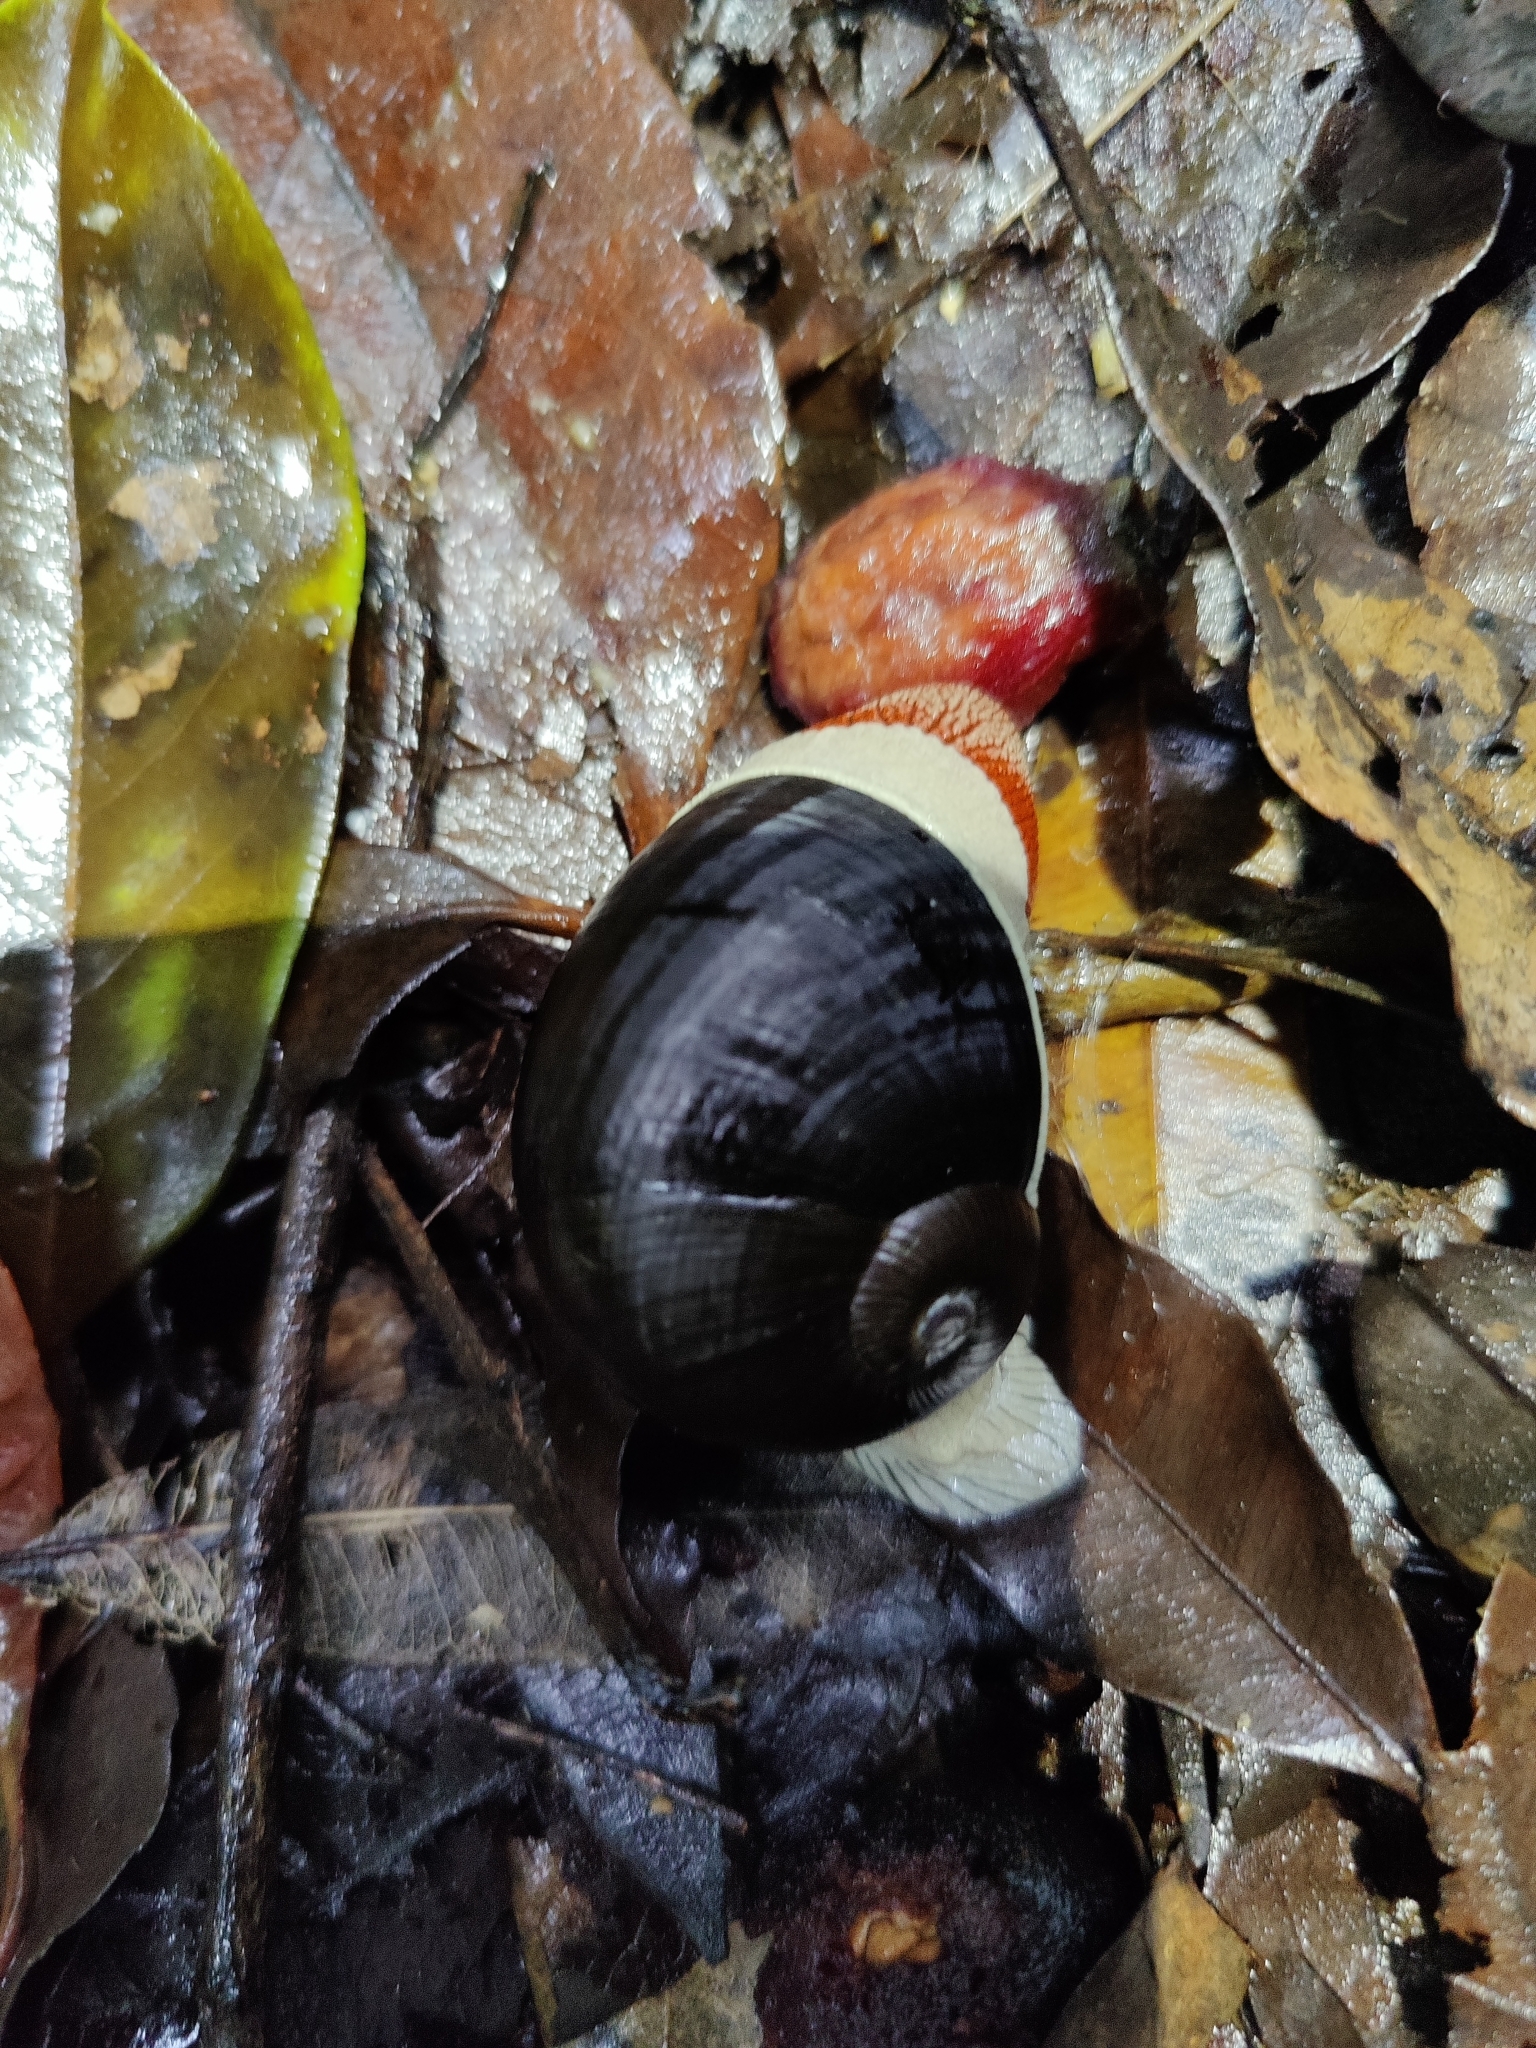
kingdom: Animalia
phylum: Mollusca
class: Gastropoda
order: Stylommatophora
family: Ariophantidae
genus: Indrella
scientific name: Indrella ampulla
